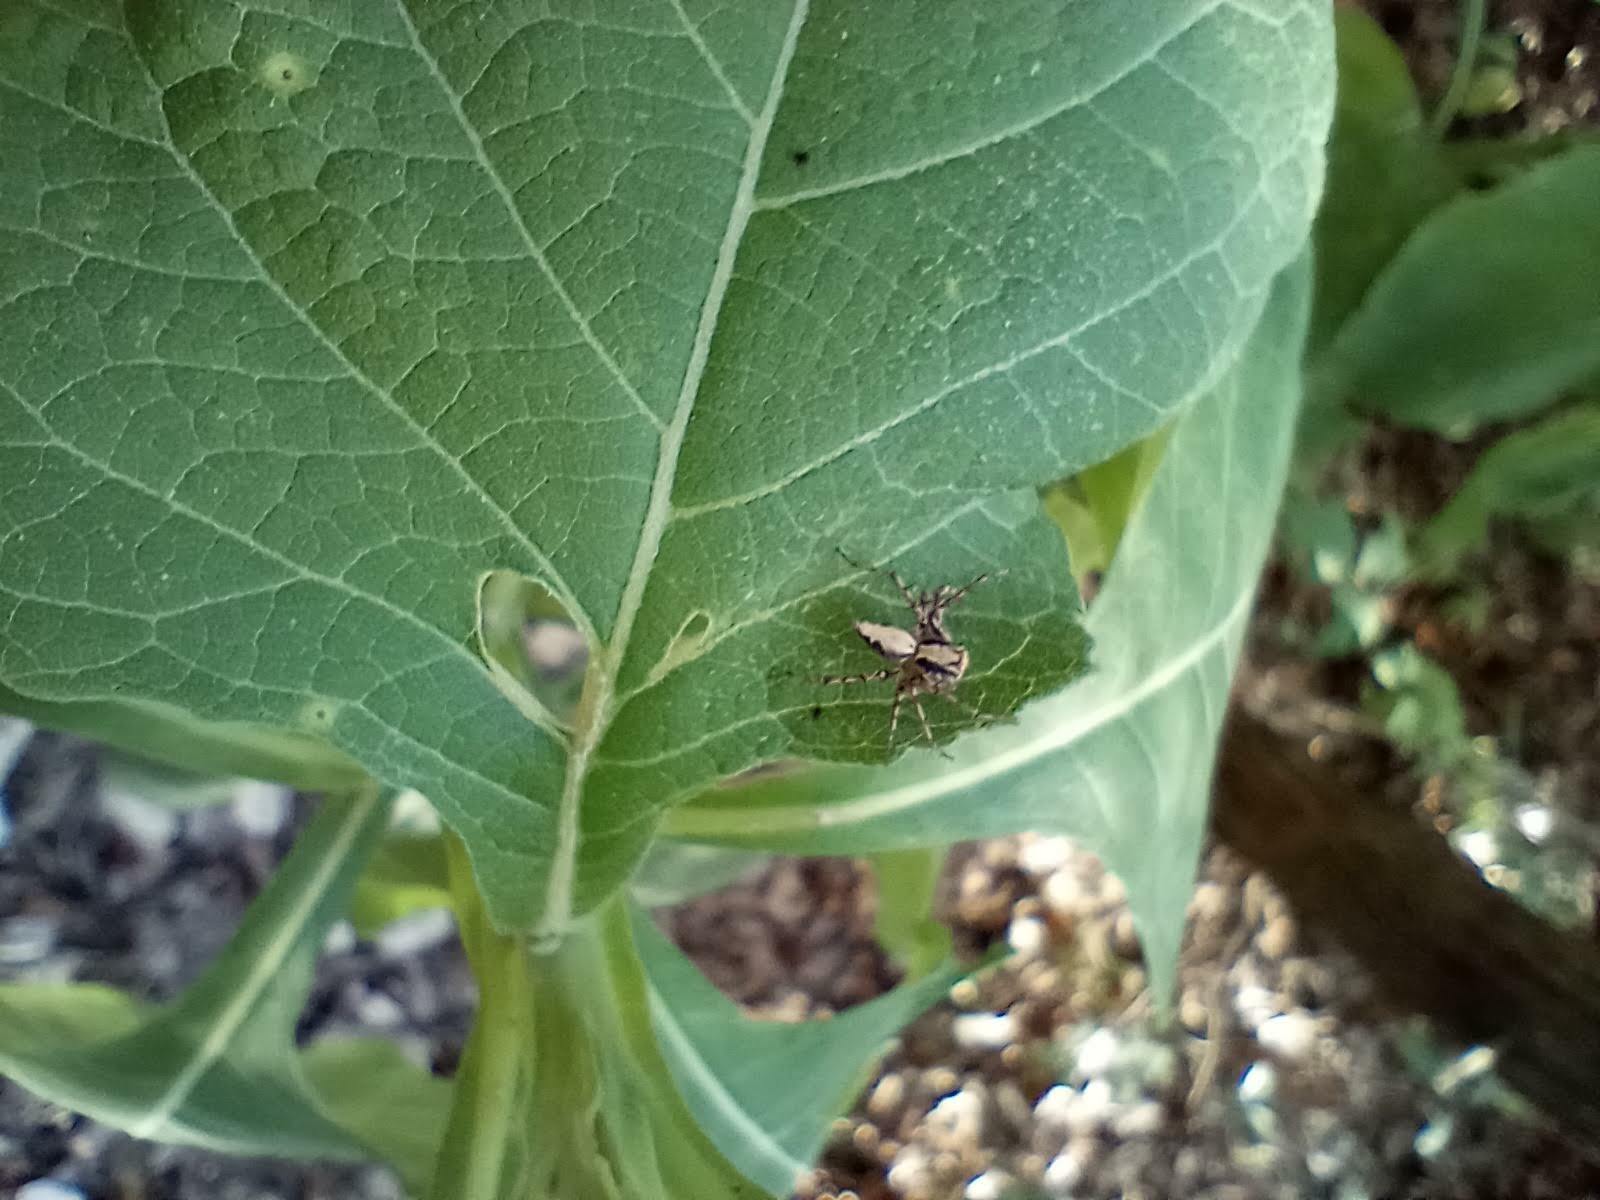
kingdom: Plantae
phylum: Tracheophyta
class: Magnoliopsida
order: Asterales
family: Asteraceae
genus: Verbesina
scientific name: Verbesina virginica
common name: Frostweed
